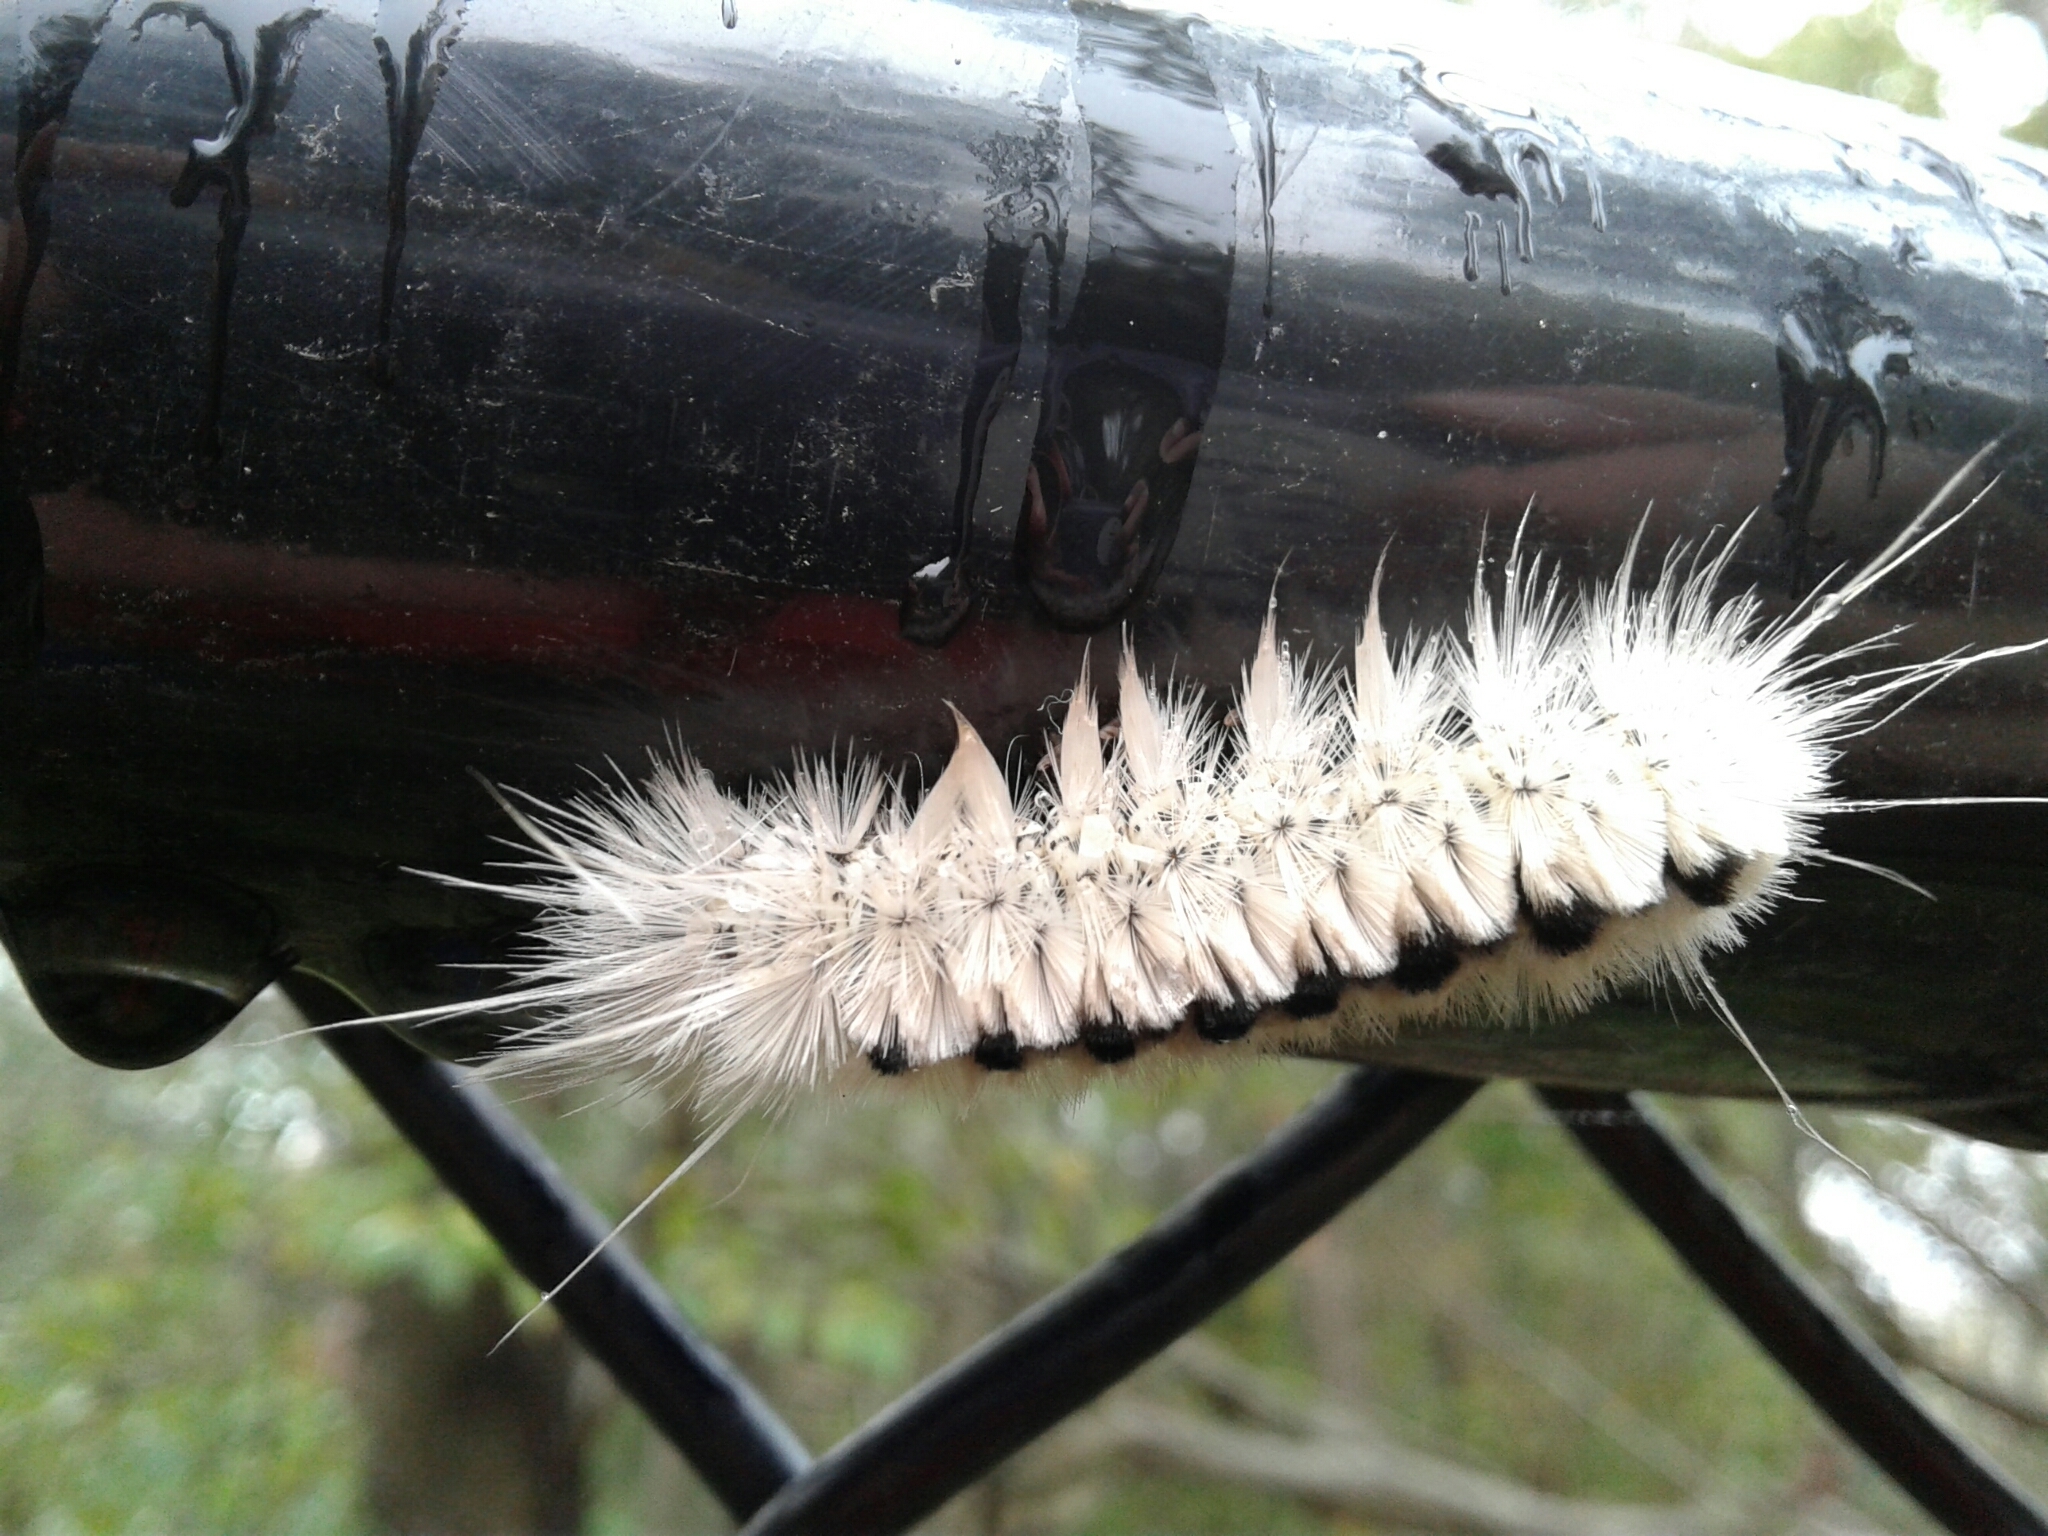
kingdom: Animalia
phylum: Arthropoda
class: Insecta
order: Lepidoptera
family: Erebidae
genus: Lophocampa
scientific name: Lophocampa caryae
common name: Hickory tussock moth
